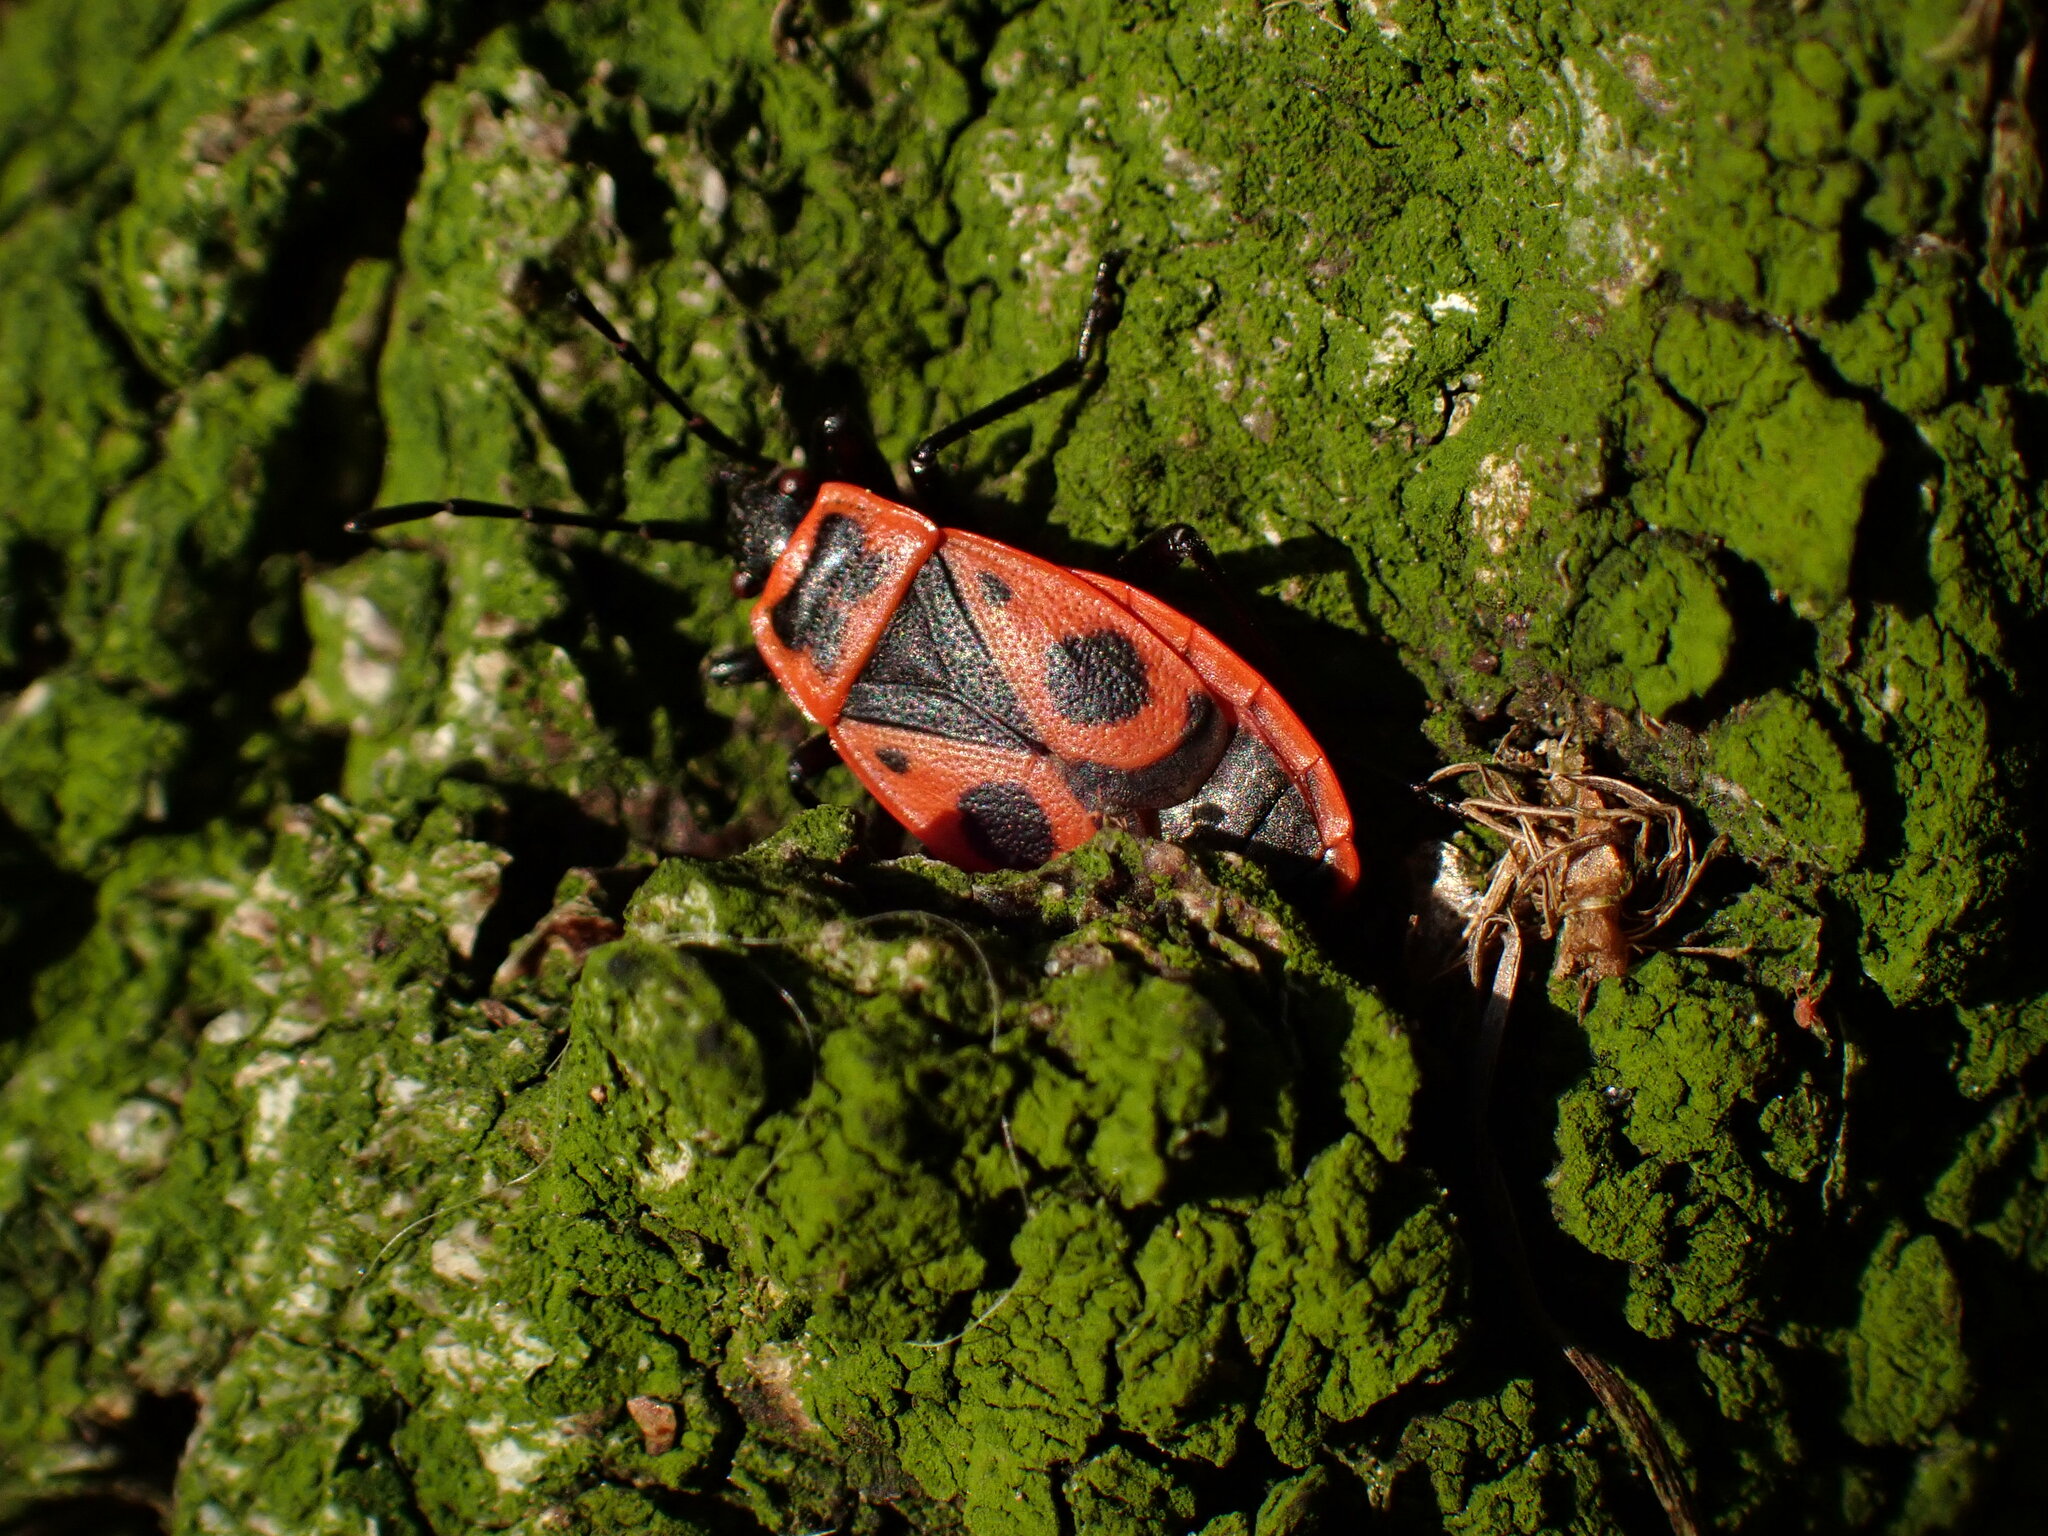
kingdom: Animalia
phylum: Arthropoda
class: Insecta
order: Hemiptera
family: Pyrrhocoridae
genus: Pyrrhocoris
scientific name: Pyrrhocoris apterus
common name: Firebug
